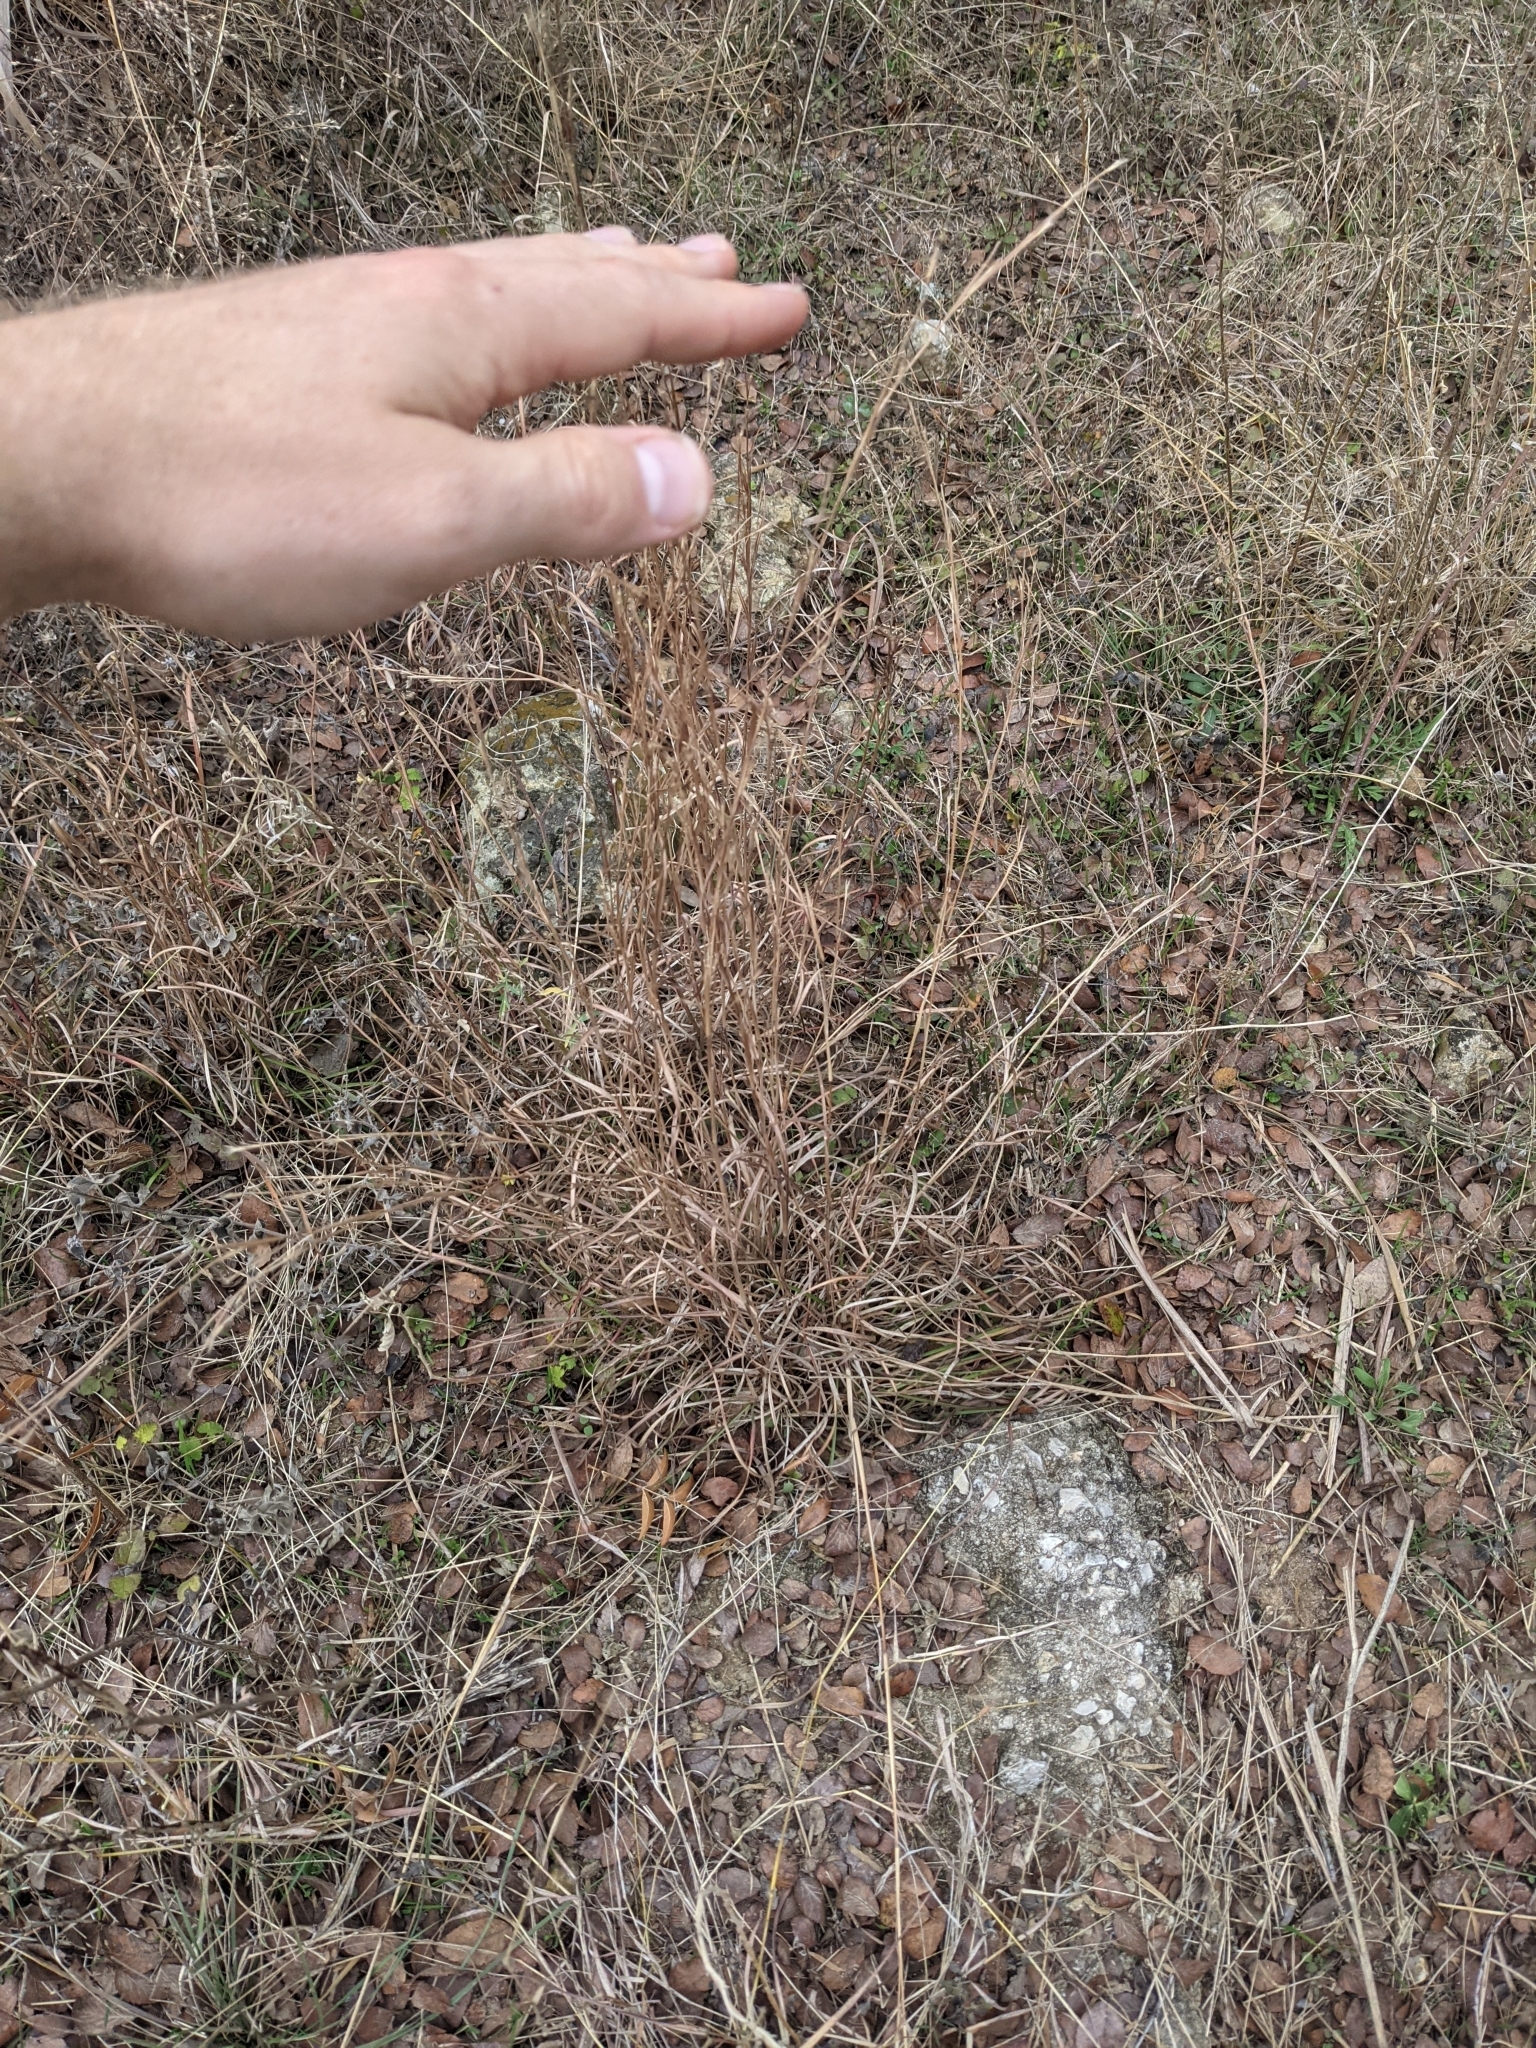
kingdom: Plantae
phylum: Tracheophyta
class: Liliopsida
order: Poales
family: Poaceae
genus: Schizachyrium
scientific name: Schizachyrium scoparium
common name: Little bluestem
